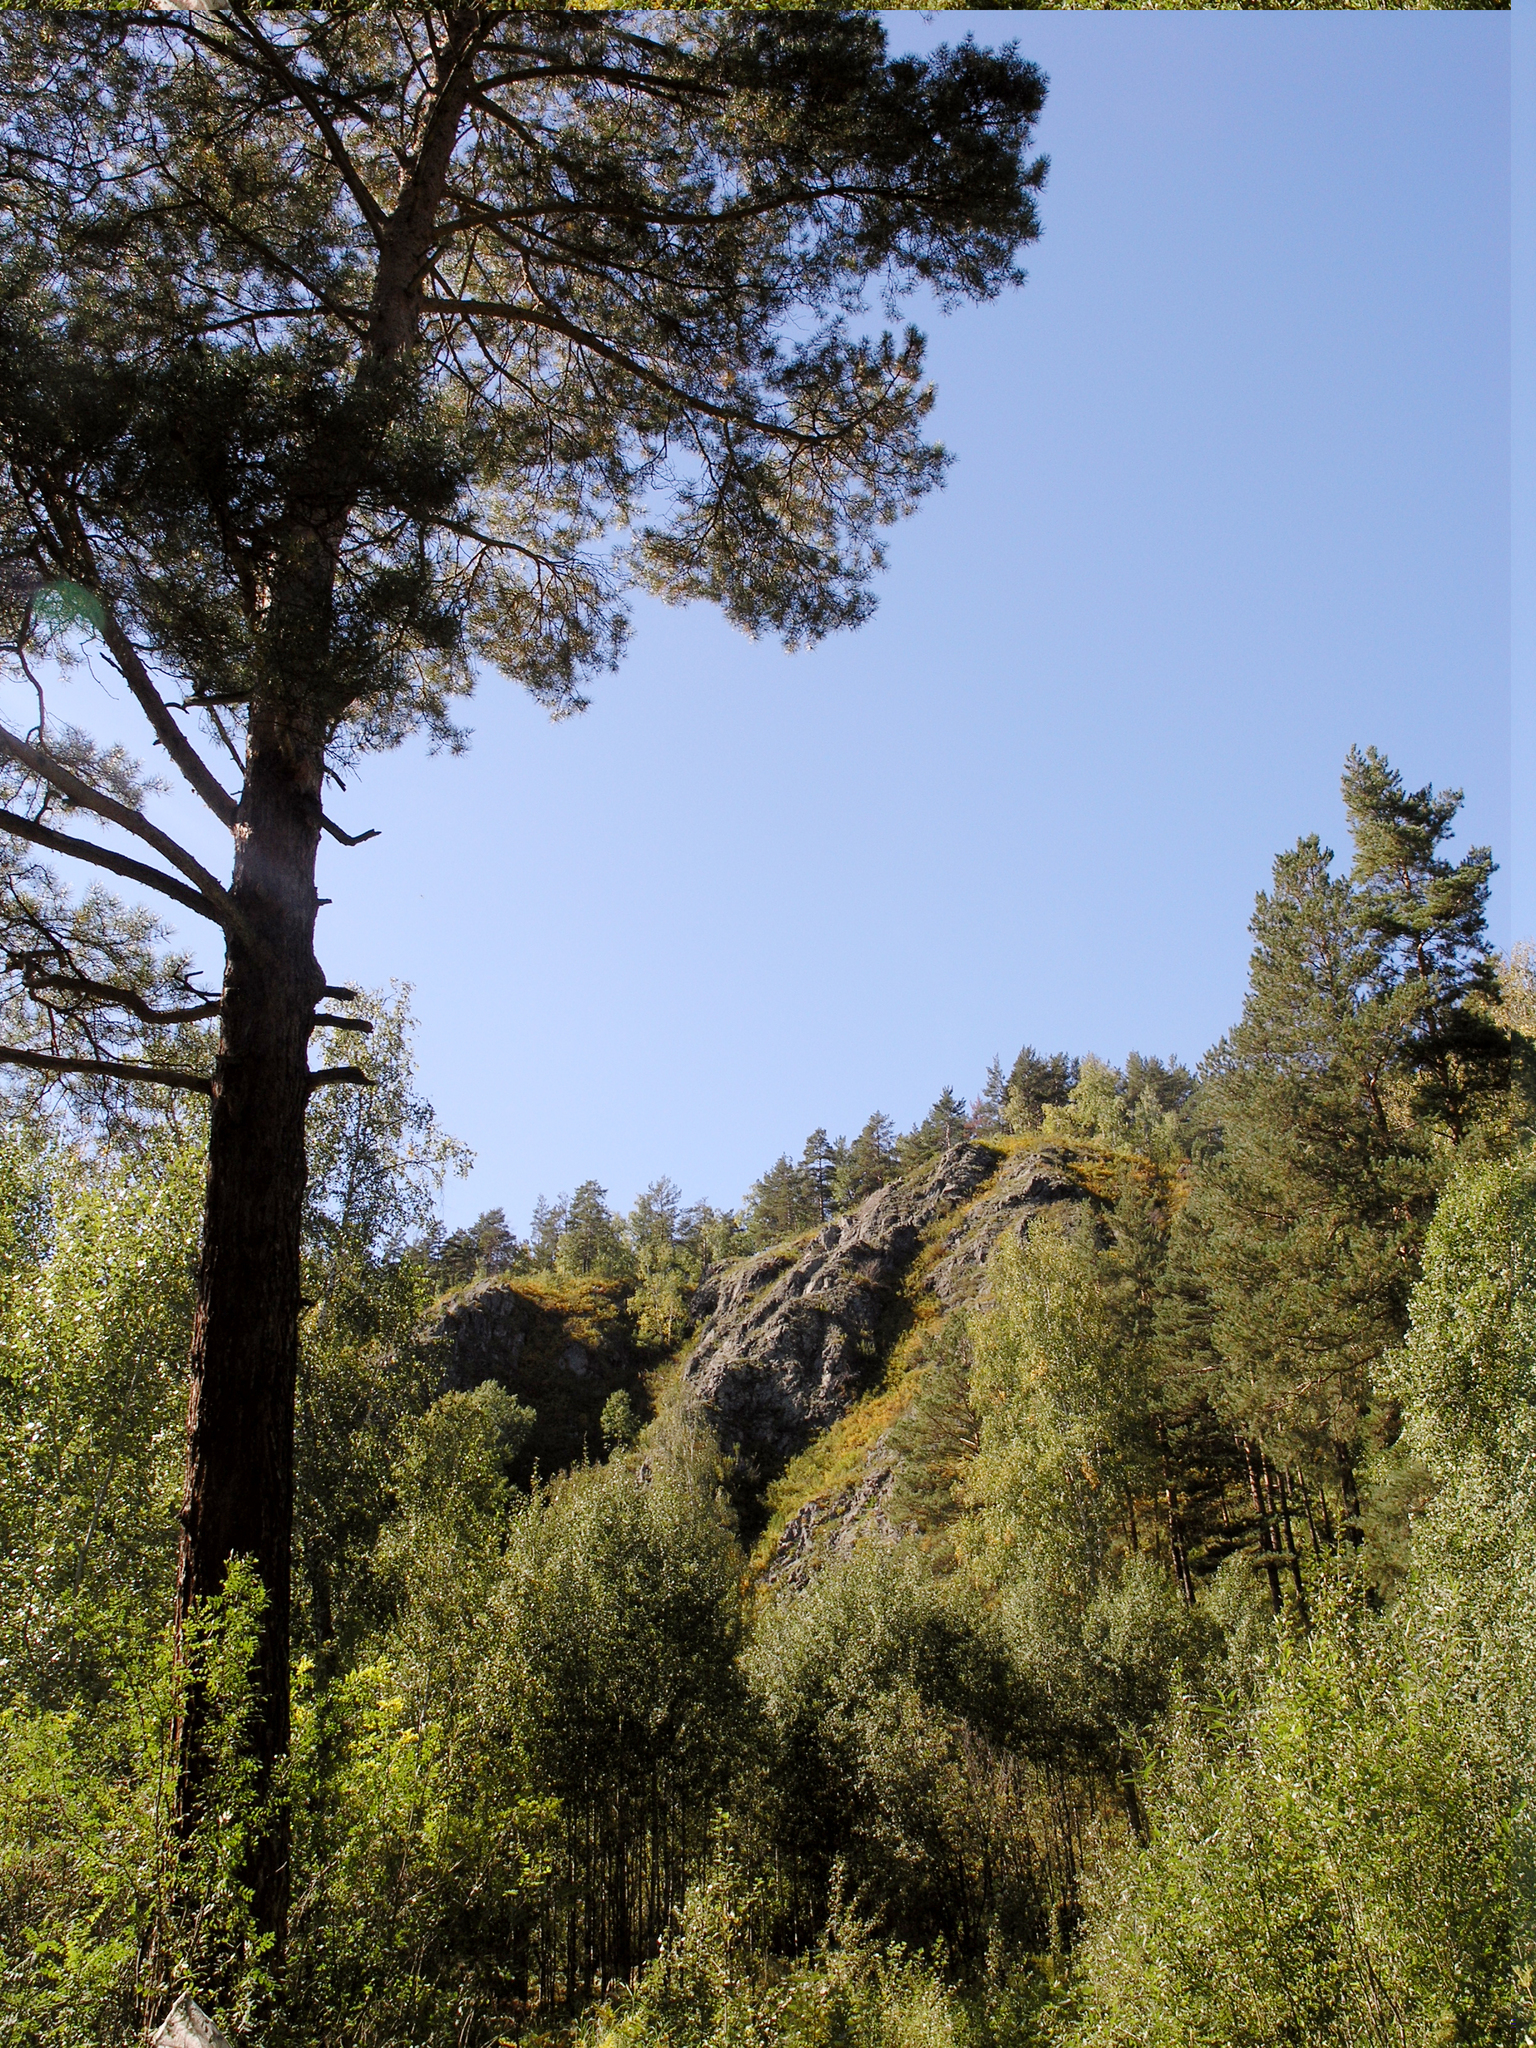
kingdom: Plantae
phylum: Tracheophyta
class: Pinopsida
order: Pinales
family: Pinaceae
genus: Pinus
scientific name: Pinus sylvestris
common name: Scots pine
